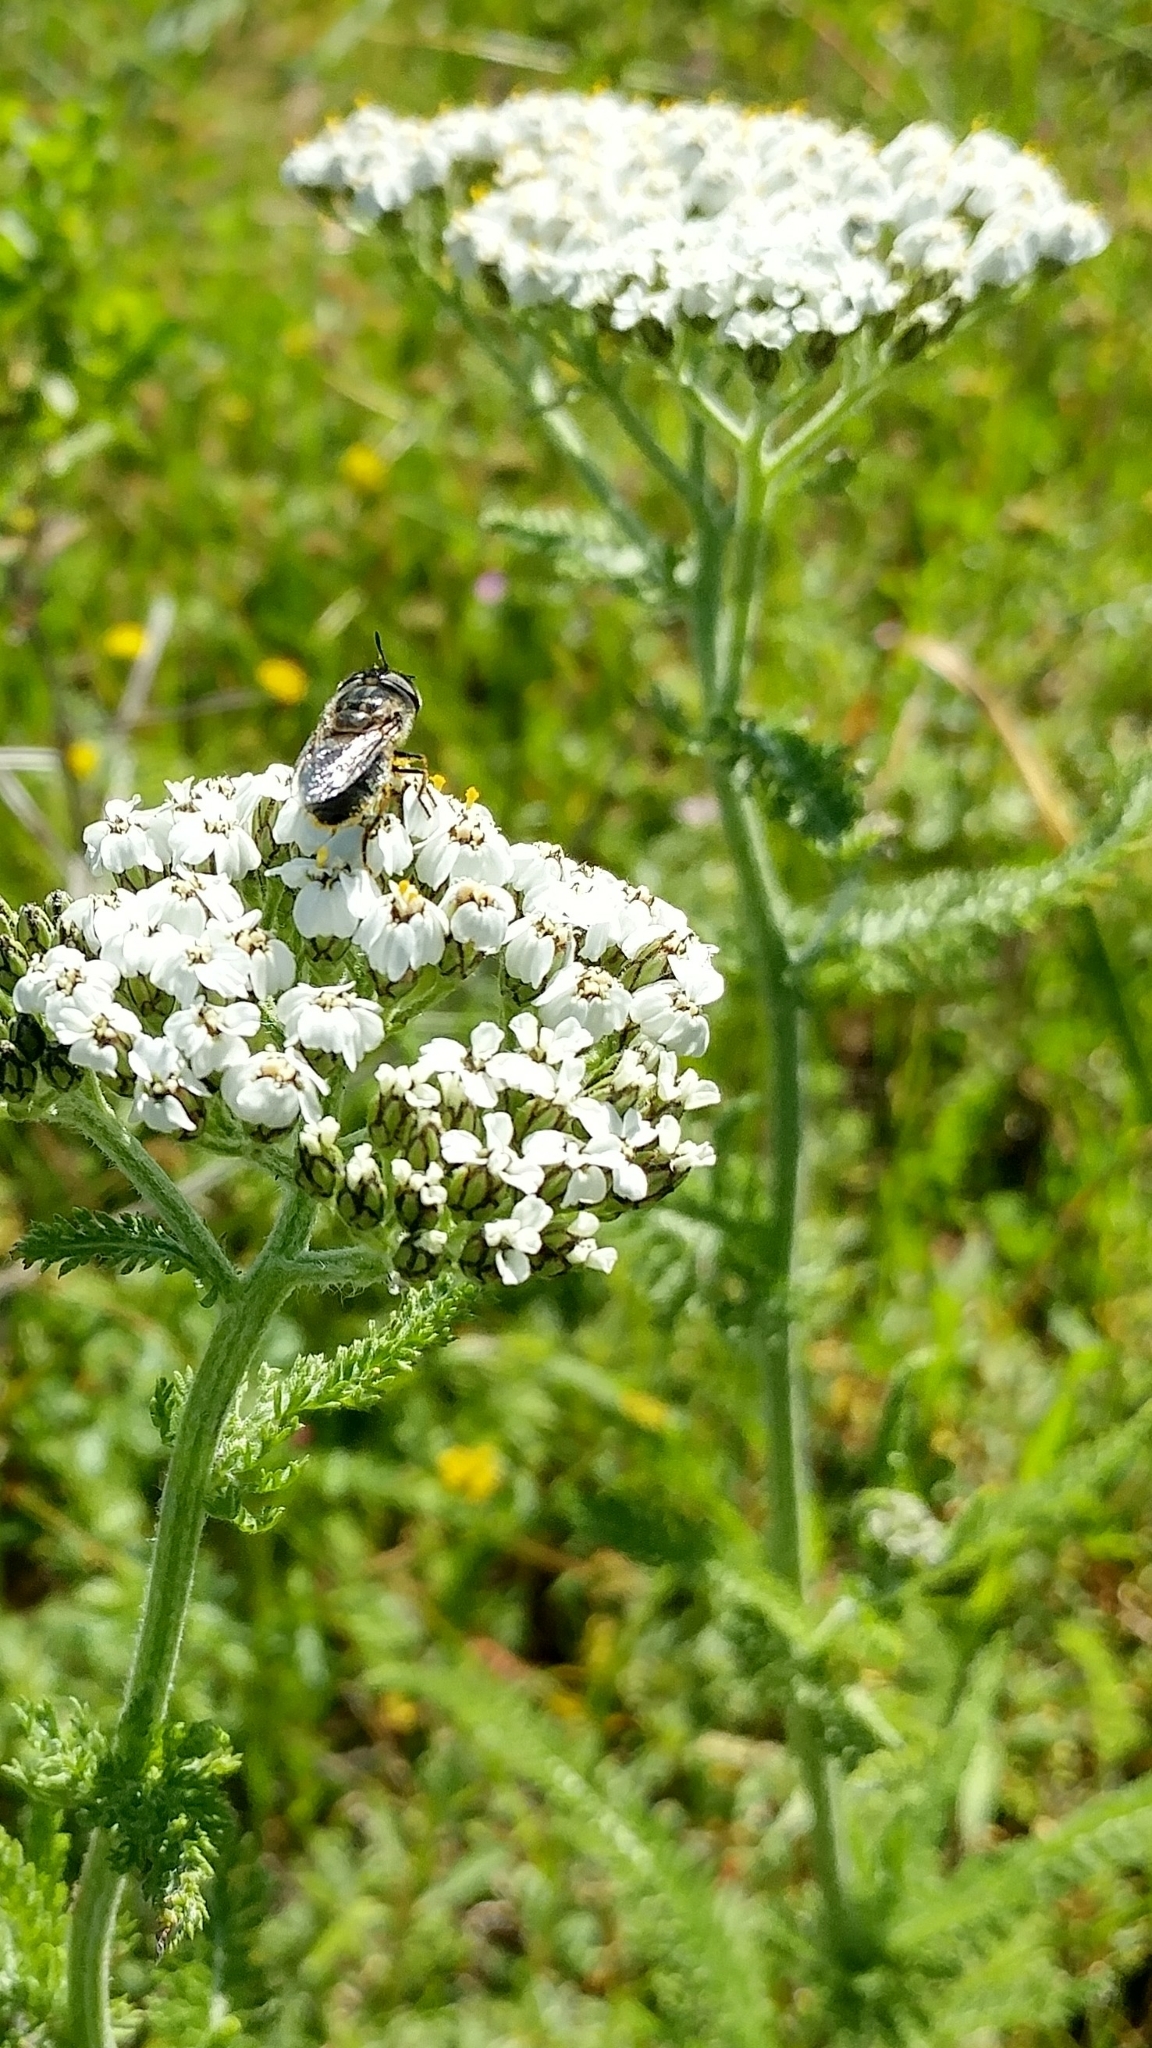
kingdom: Plantae
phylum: Tracheophyta
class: Magnoliopsida
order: Asterales
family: Asteraceae
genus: Achillea
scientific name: Achillea millefolium
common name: Yarrow
